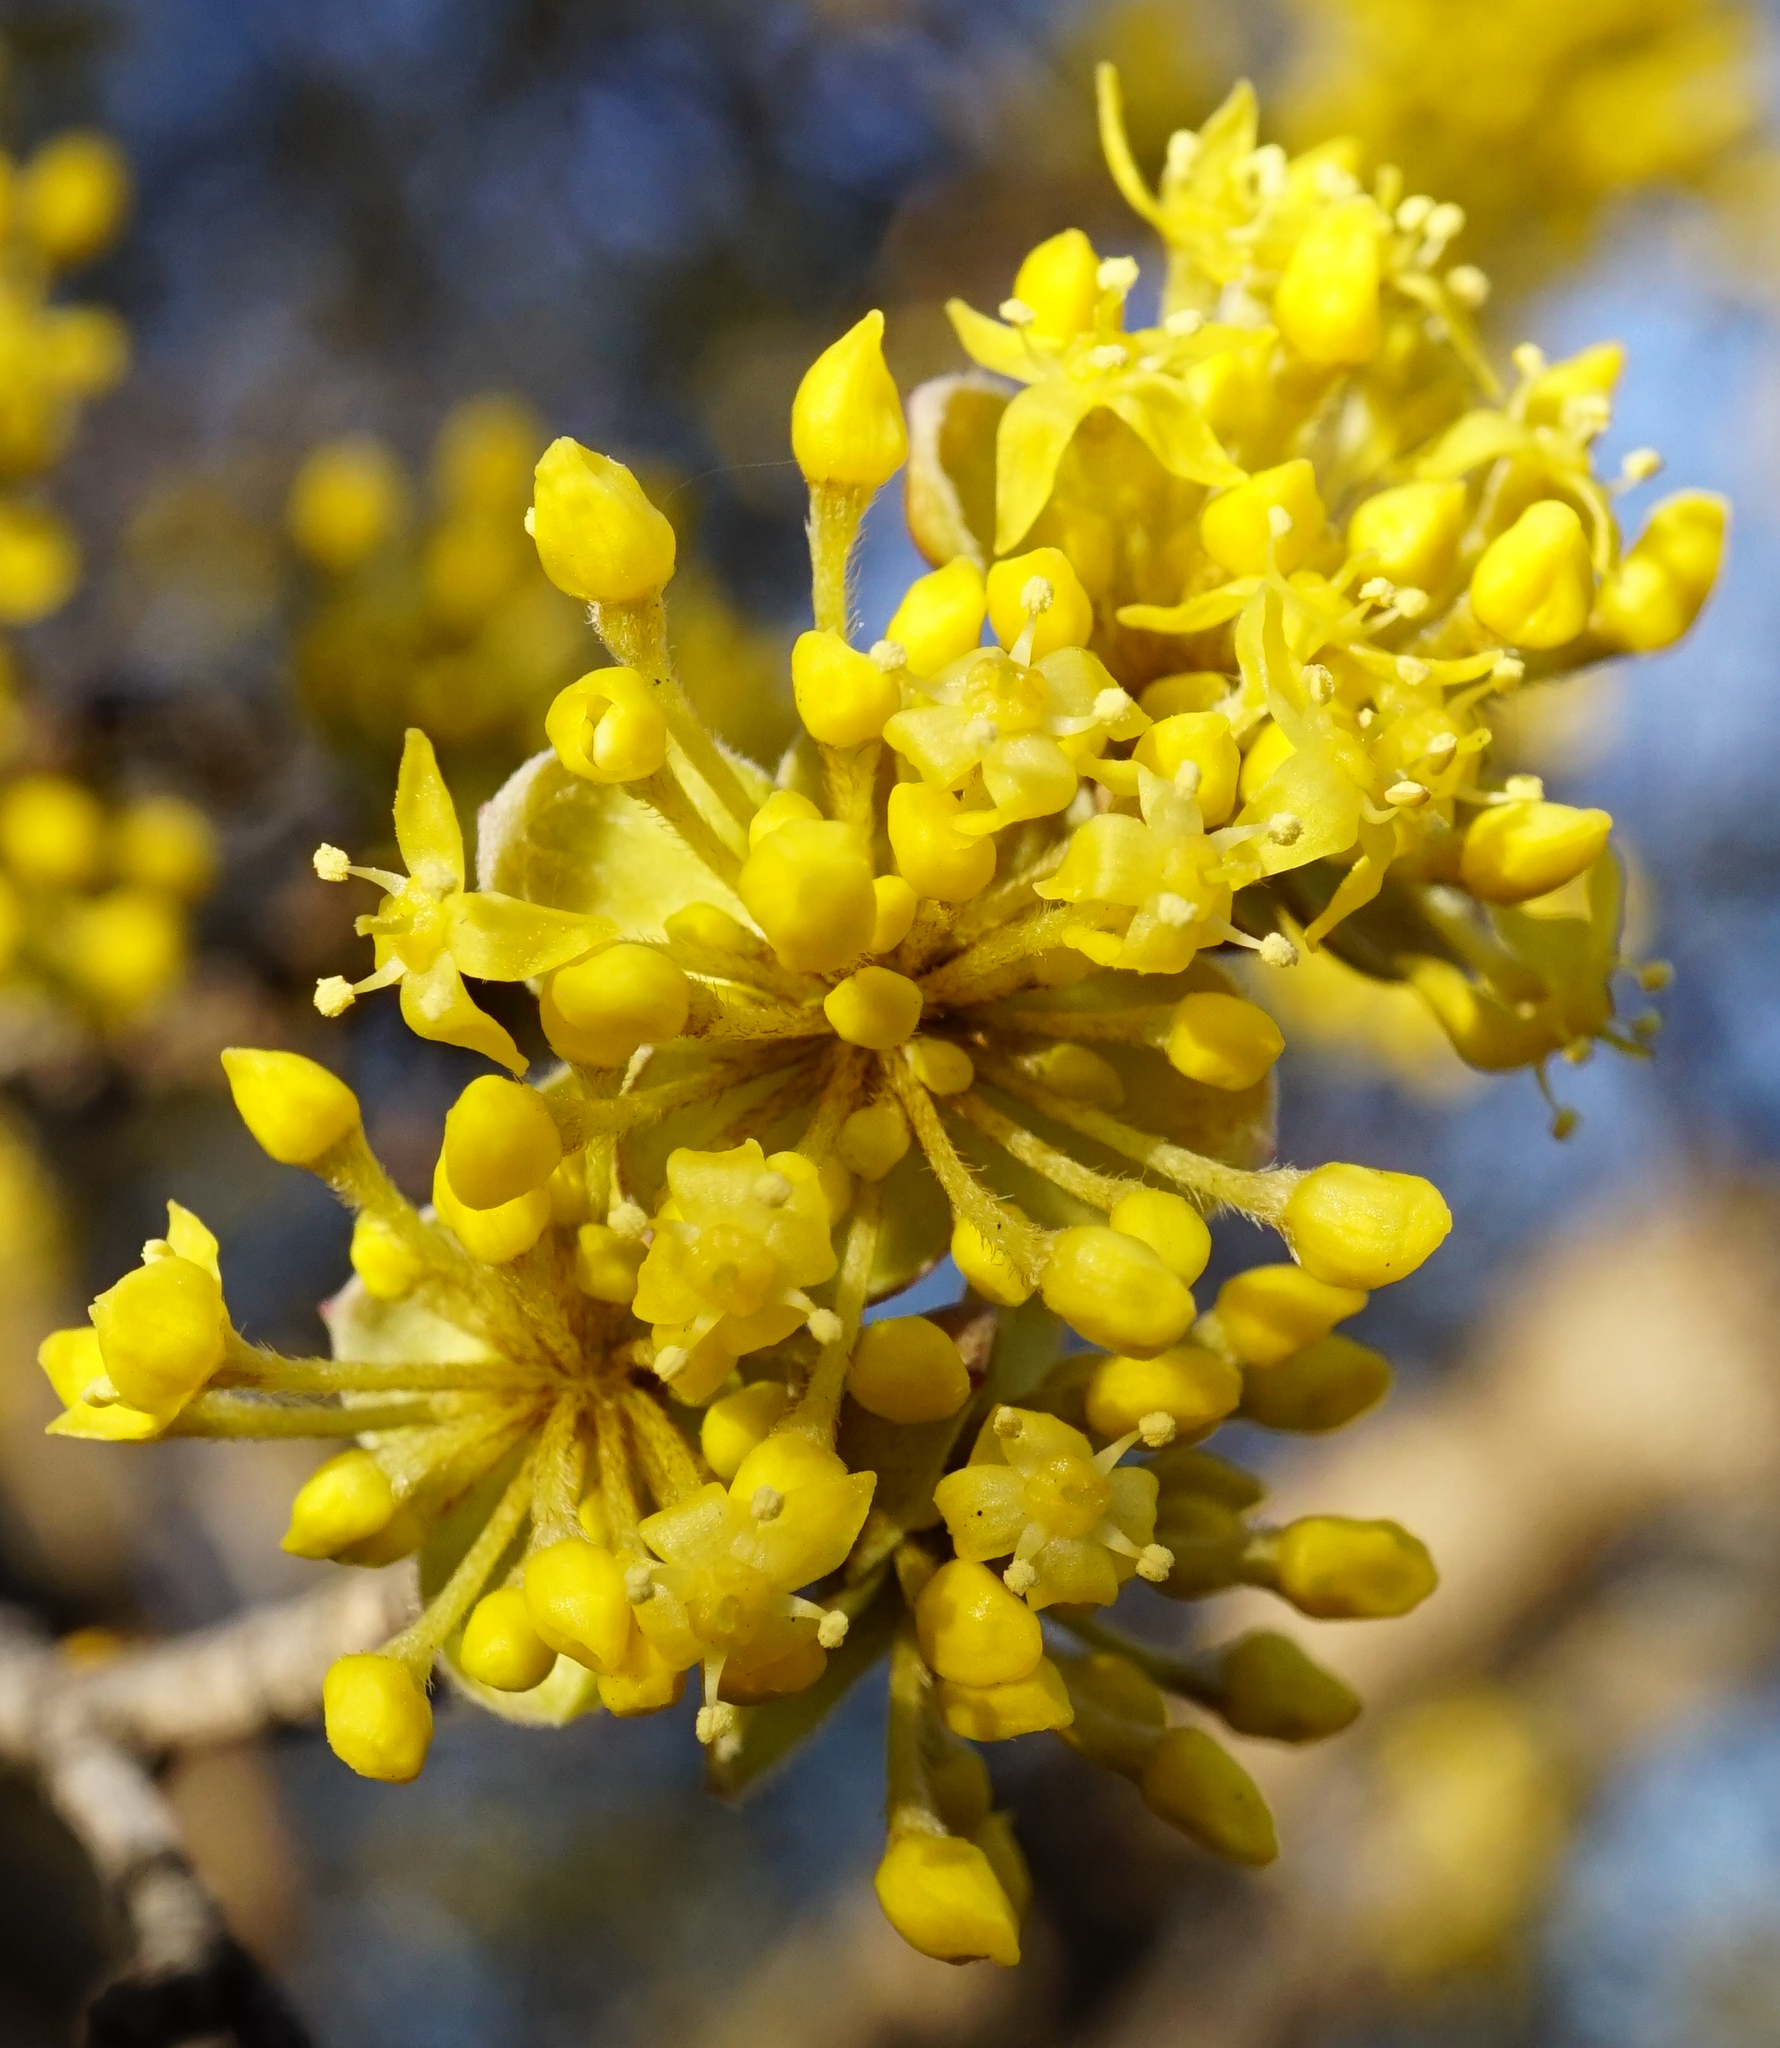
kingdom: Plantae
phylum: Tracheophyta
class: Magnoliopsida
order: Cornales
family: Cornaceae
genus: Cornus
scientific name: Cornus mas
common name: Cornelian-cherry
